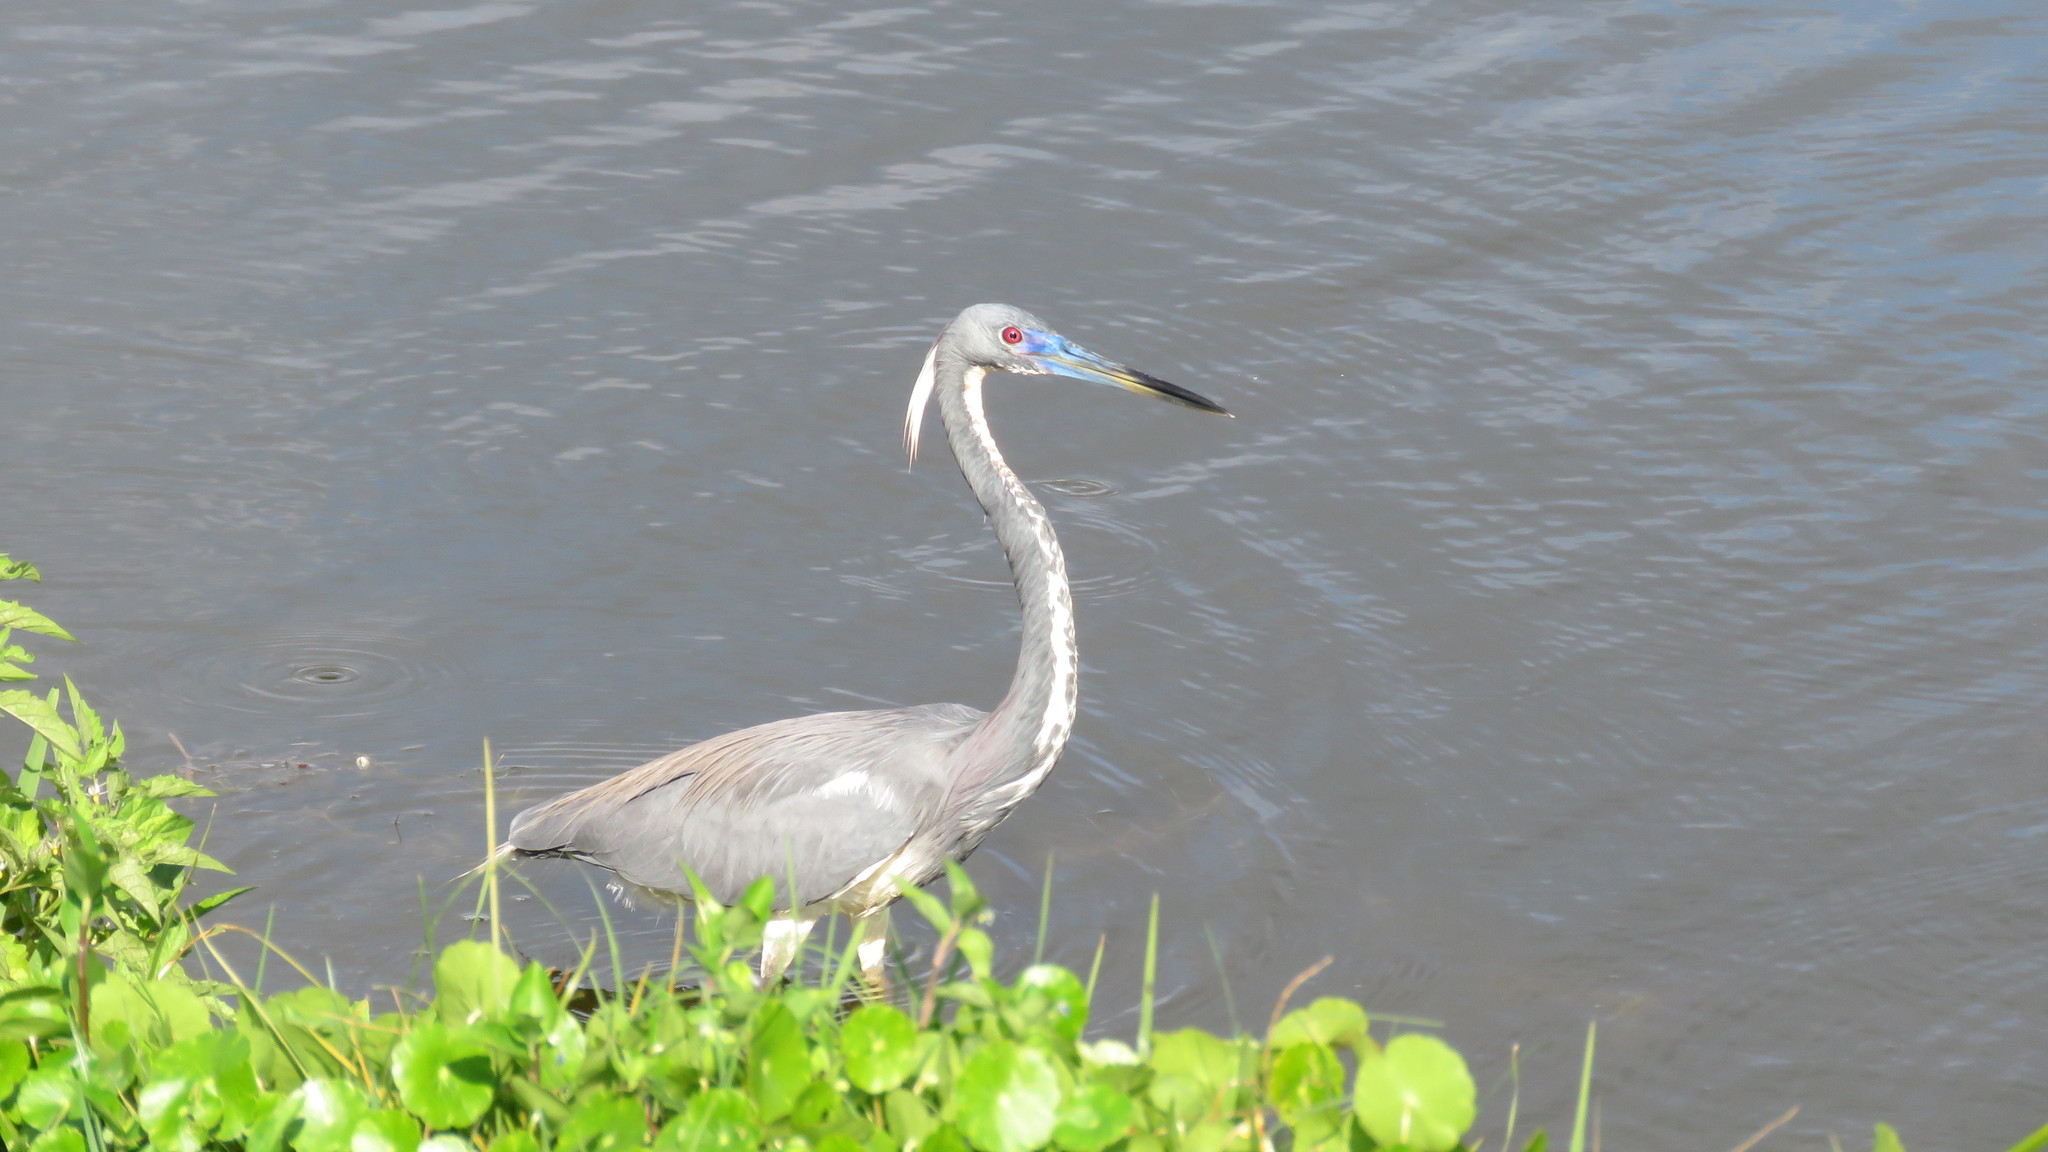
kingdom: Animalia
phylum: Chordata
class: Aves
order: Pelecaniformes
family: Ardeidae
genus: Egretta
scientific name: Egretta tricolor
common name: Tricolored heron
